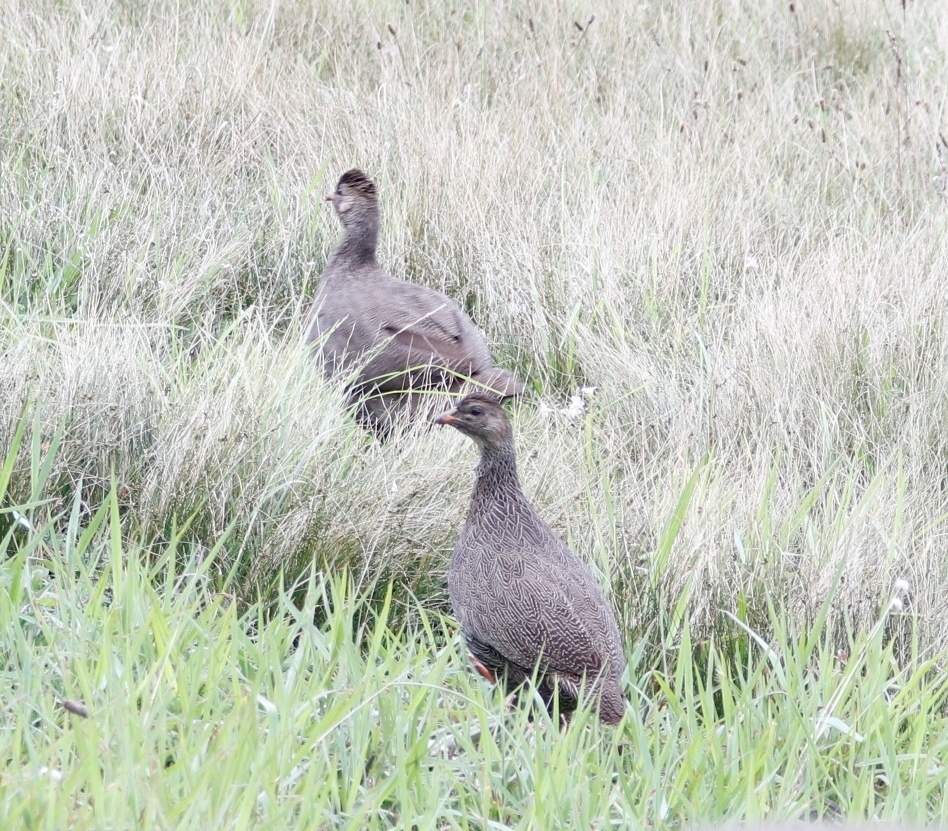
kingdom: Animalia
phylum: Chordata
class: Aves
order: Galliformes
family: Phasianidae
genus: Pternistis
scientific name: Pternistis capensis
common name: Cape spurfowl
